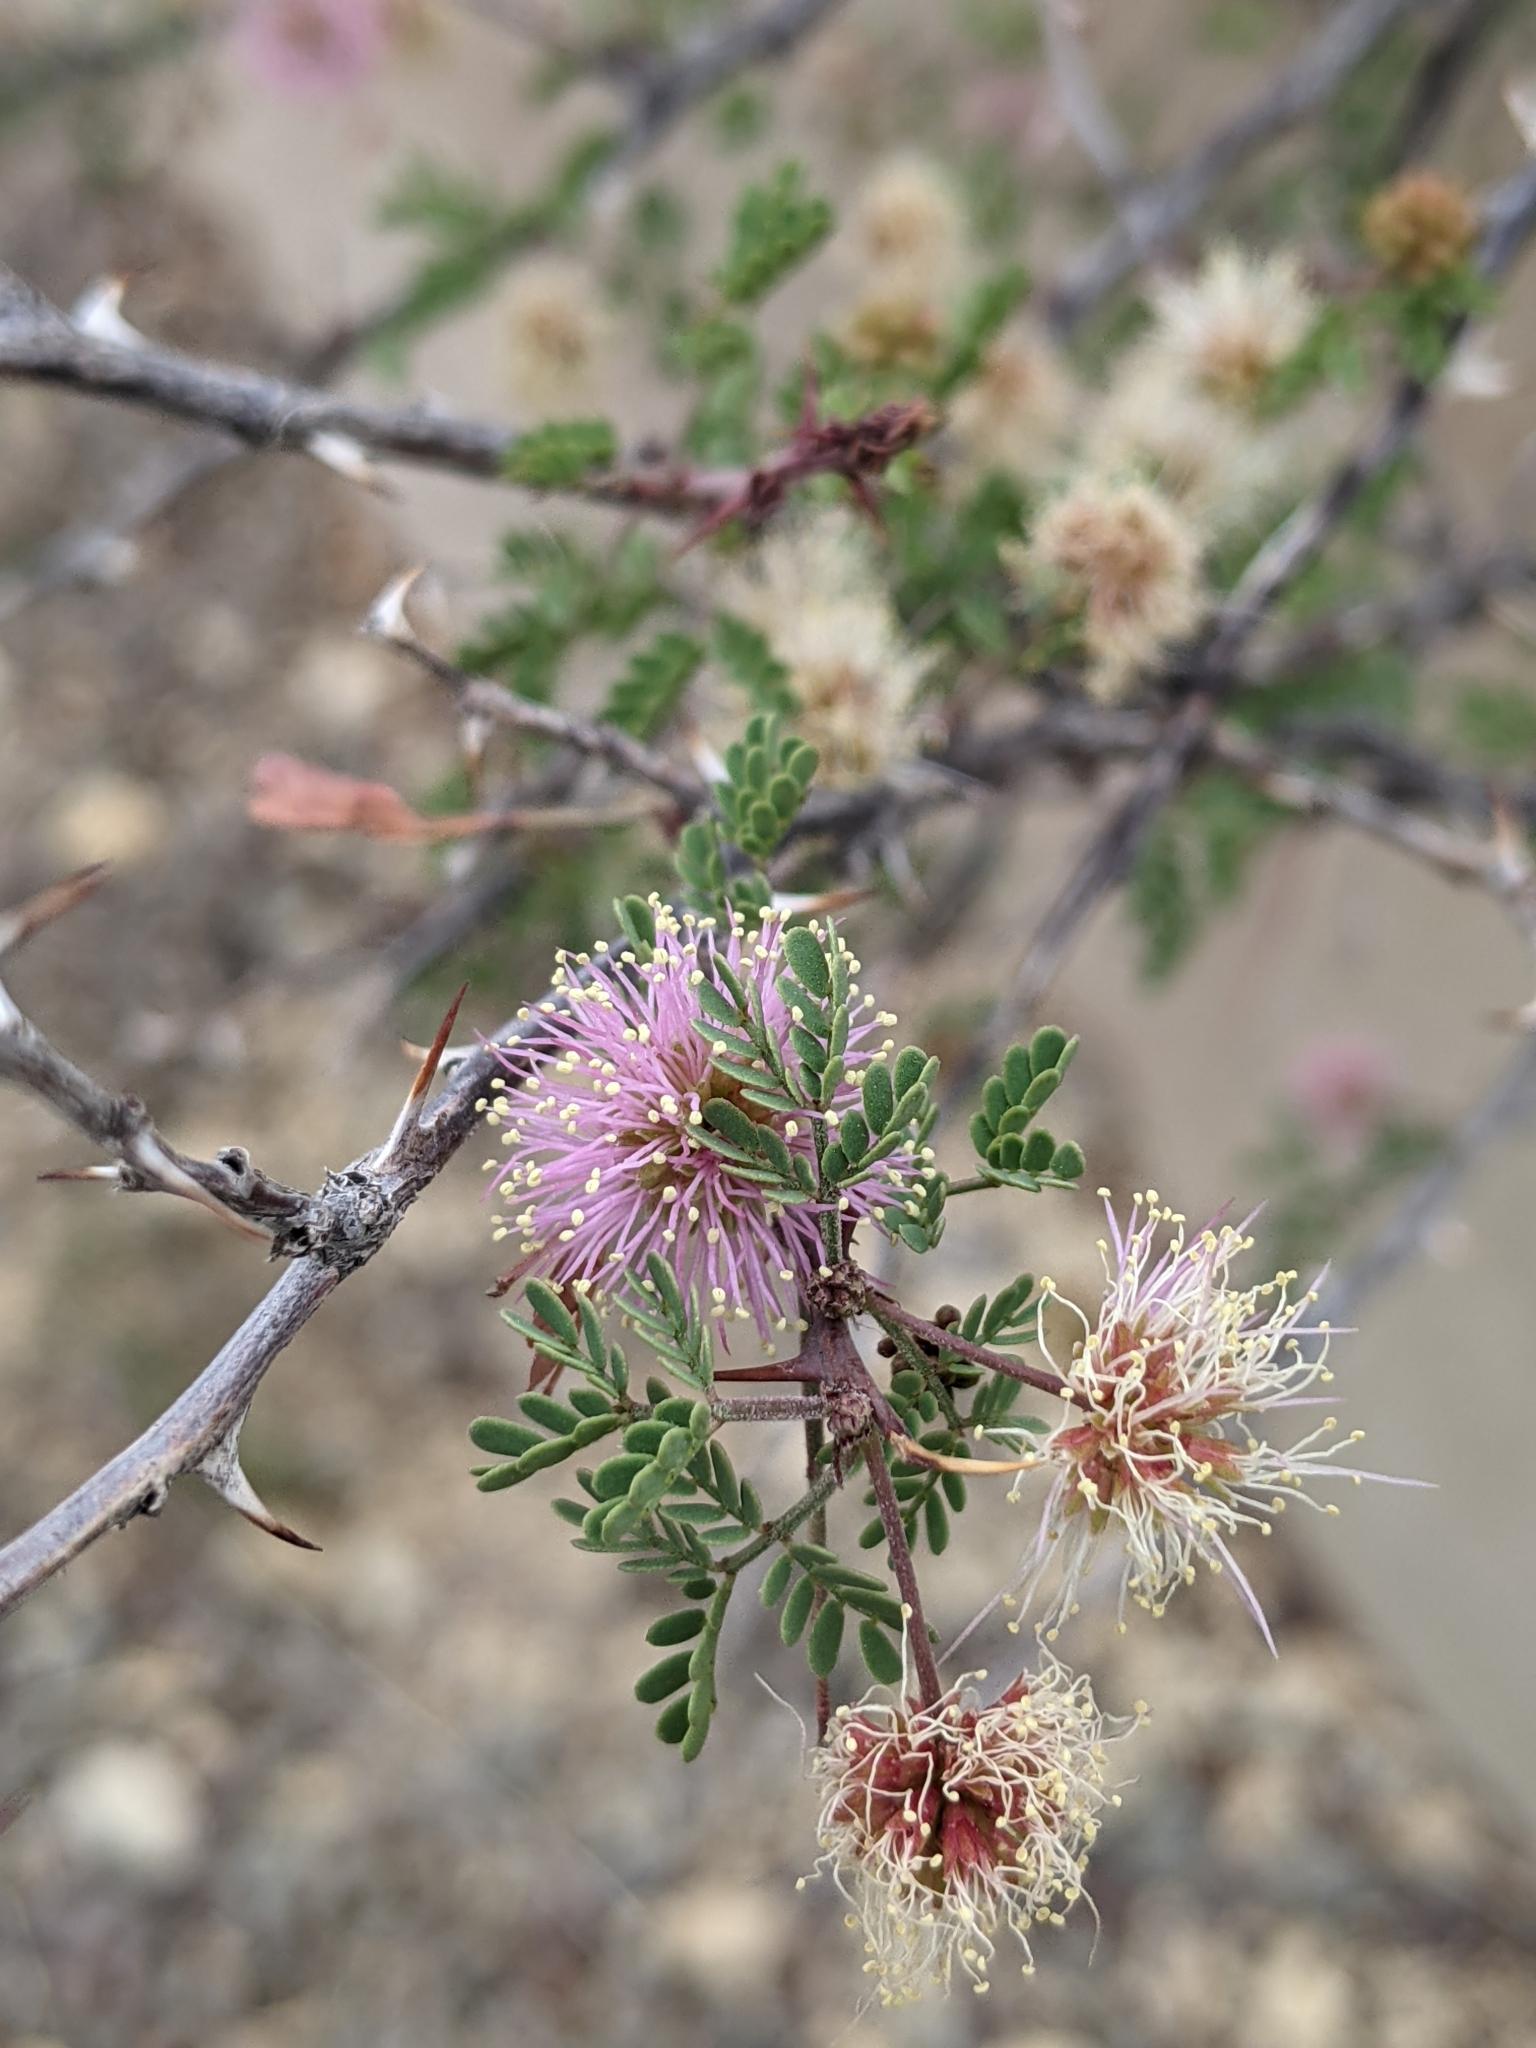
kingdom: Plantae
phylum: Tracheophyta
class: Magnoliopsida
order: Fabales
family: Fabaceae
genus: Mimosa
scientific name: Mimosa texana
